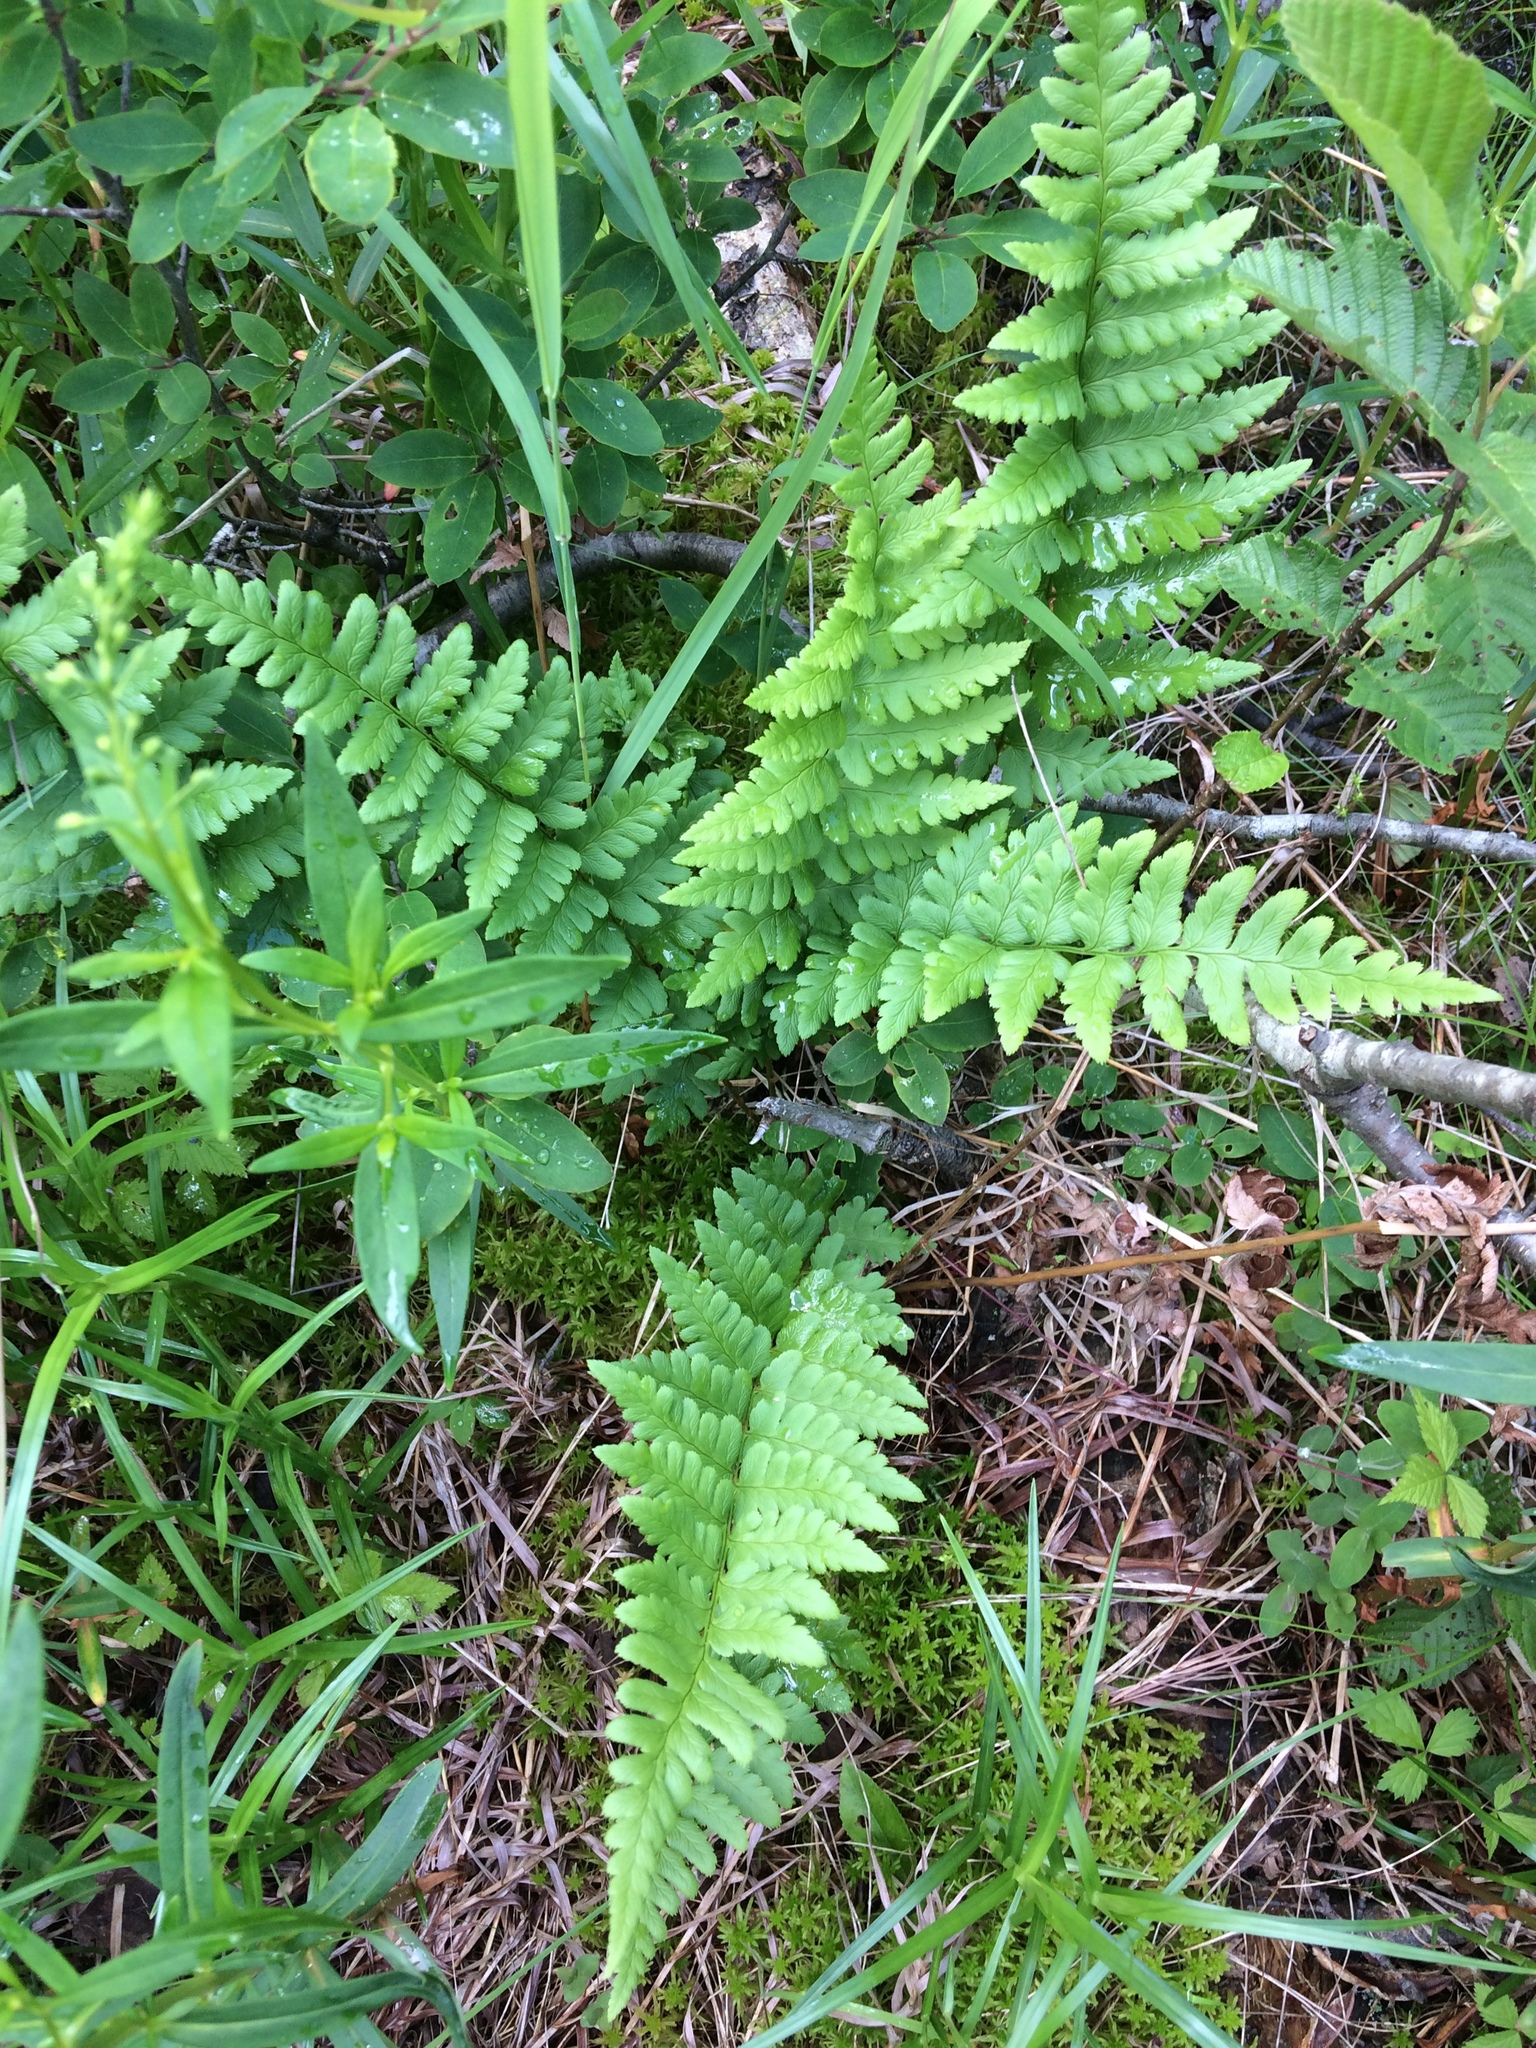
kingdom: Plantae
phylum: Tracheophyta
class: Polypodiopsida
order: Polypodiales
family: Dryopteridaceae
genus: Dryopteris
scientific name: Dryopteris cristata
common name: Crested wood fern
